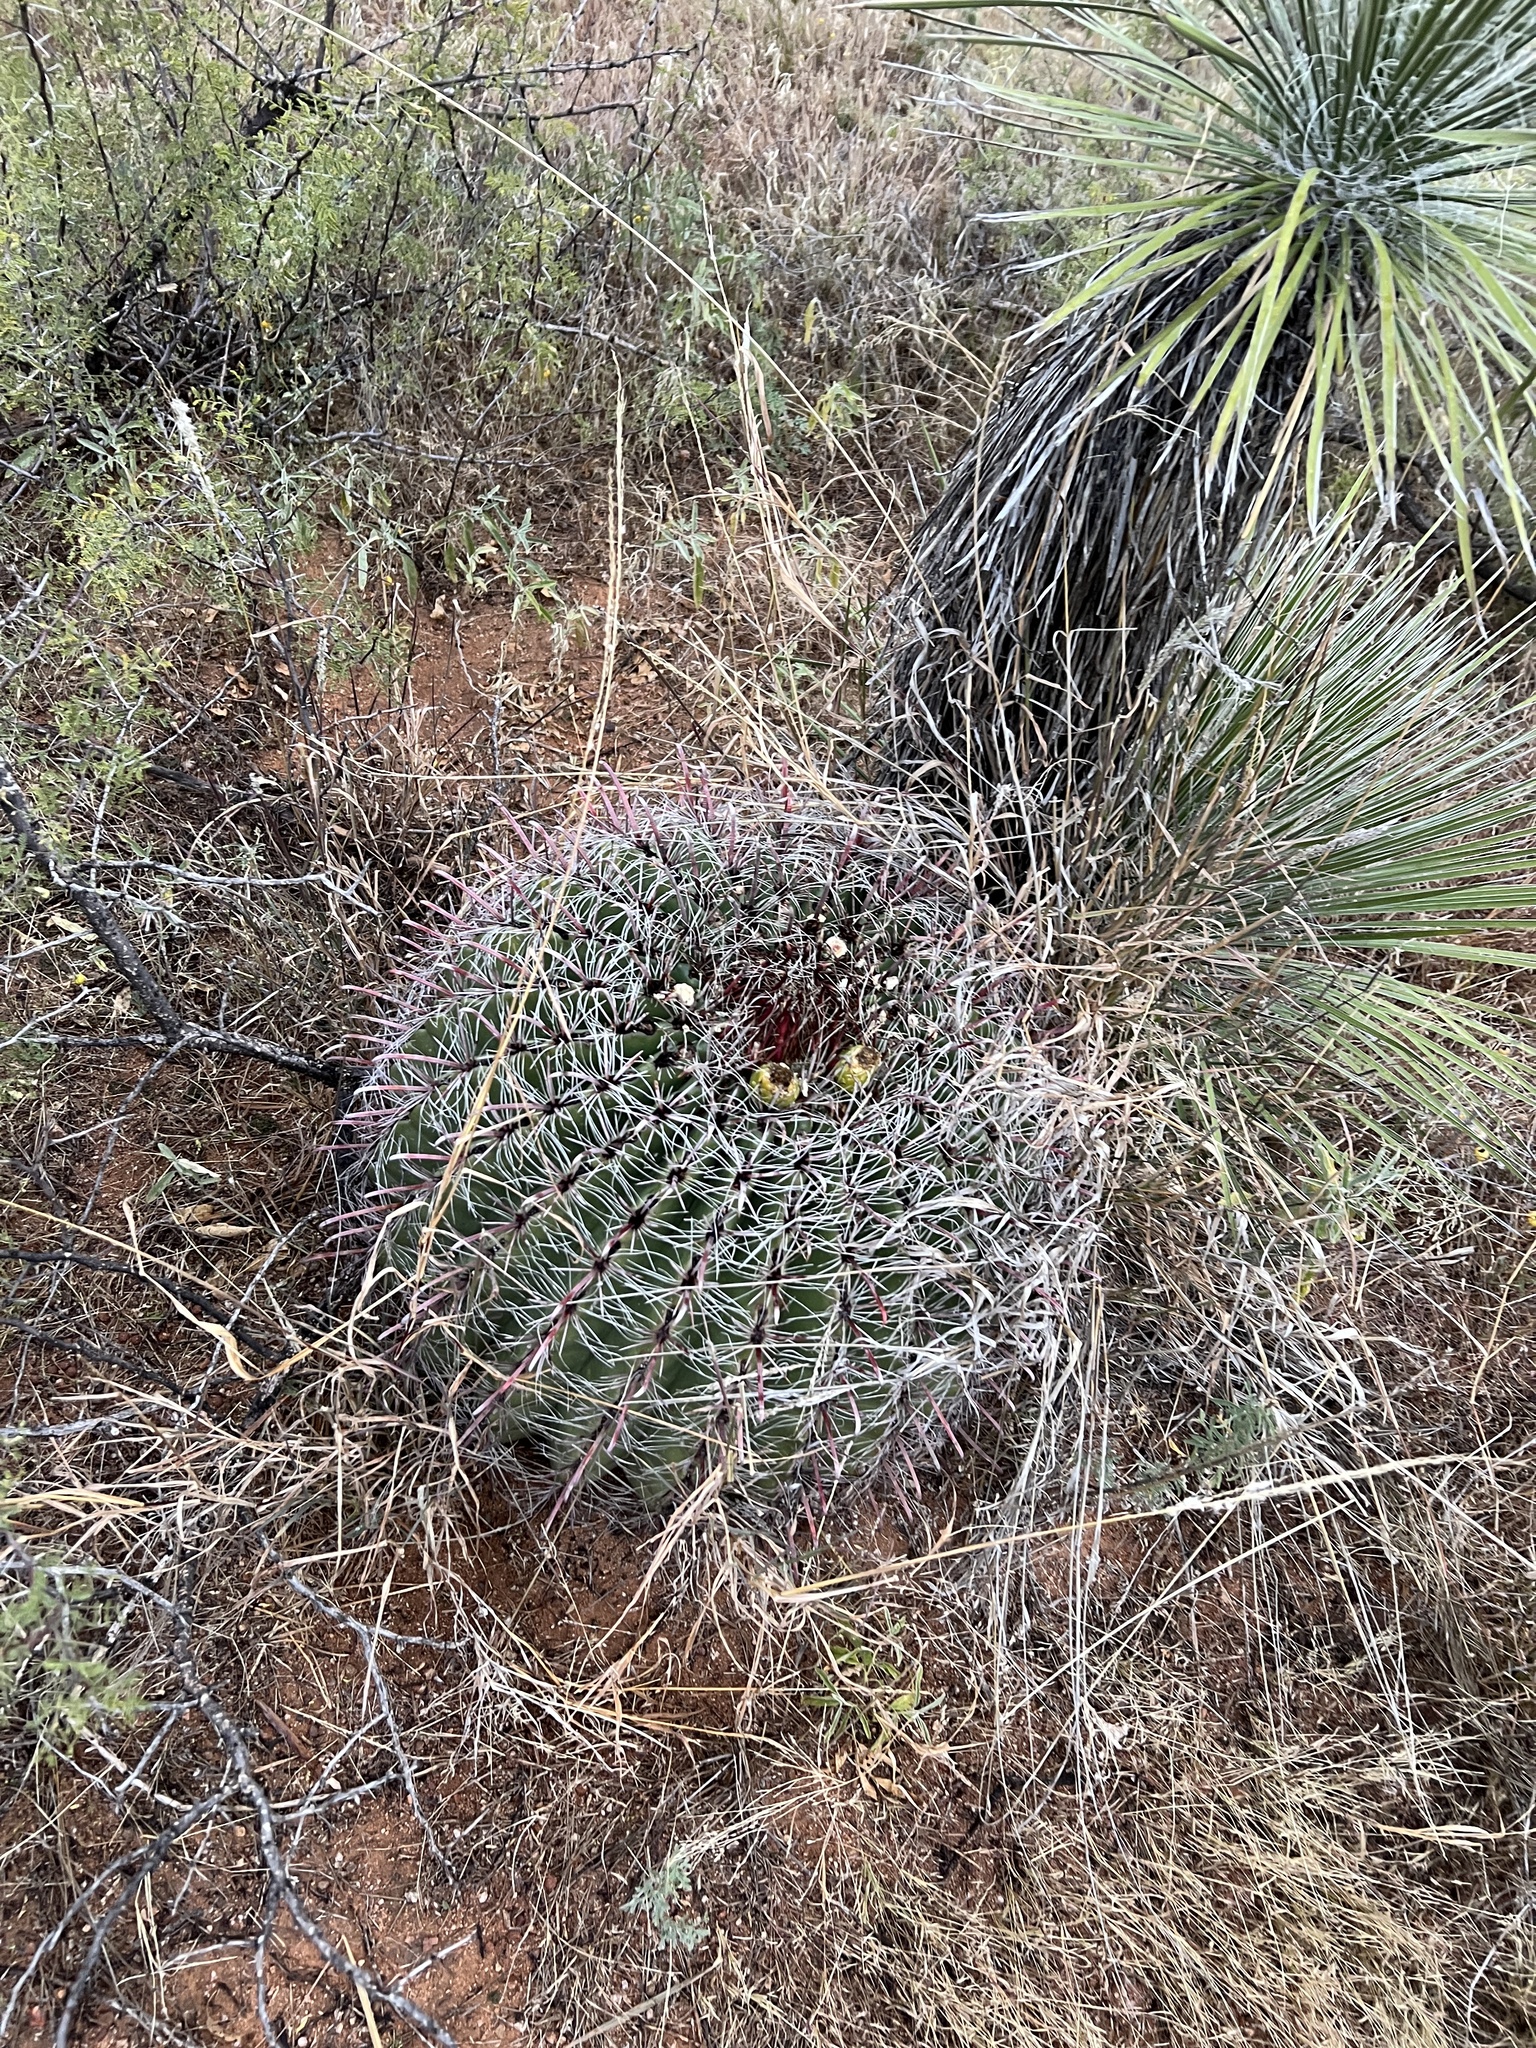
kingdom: Plantae
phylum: Tracheophyta
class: Magnoliopsida
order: Caryophyllales
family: Cactaceae
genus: Ferocactus
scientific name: Ferocactus wislizeni
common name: Candy barrel cactus
